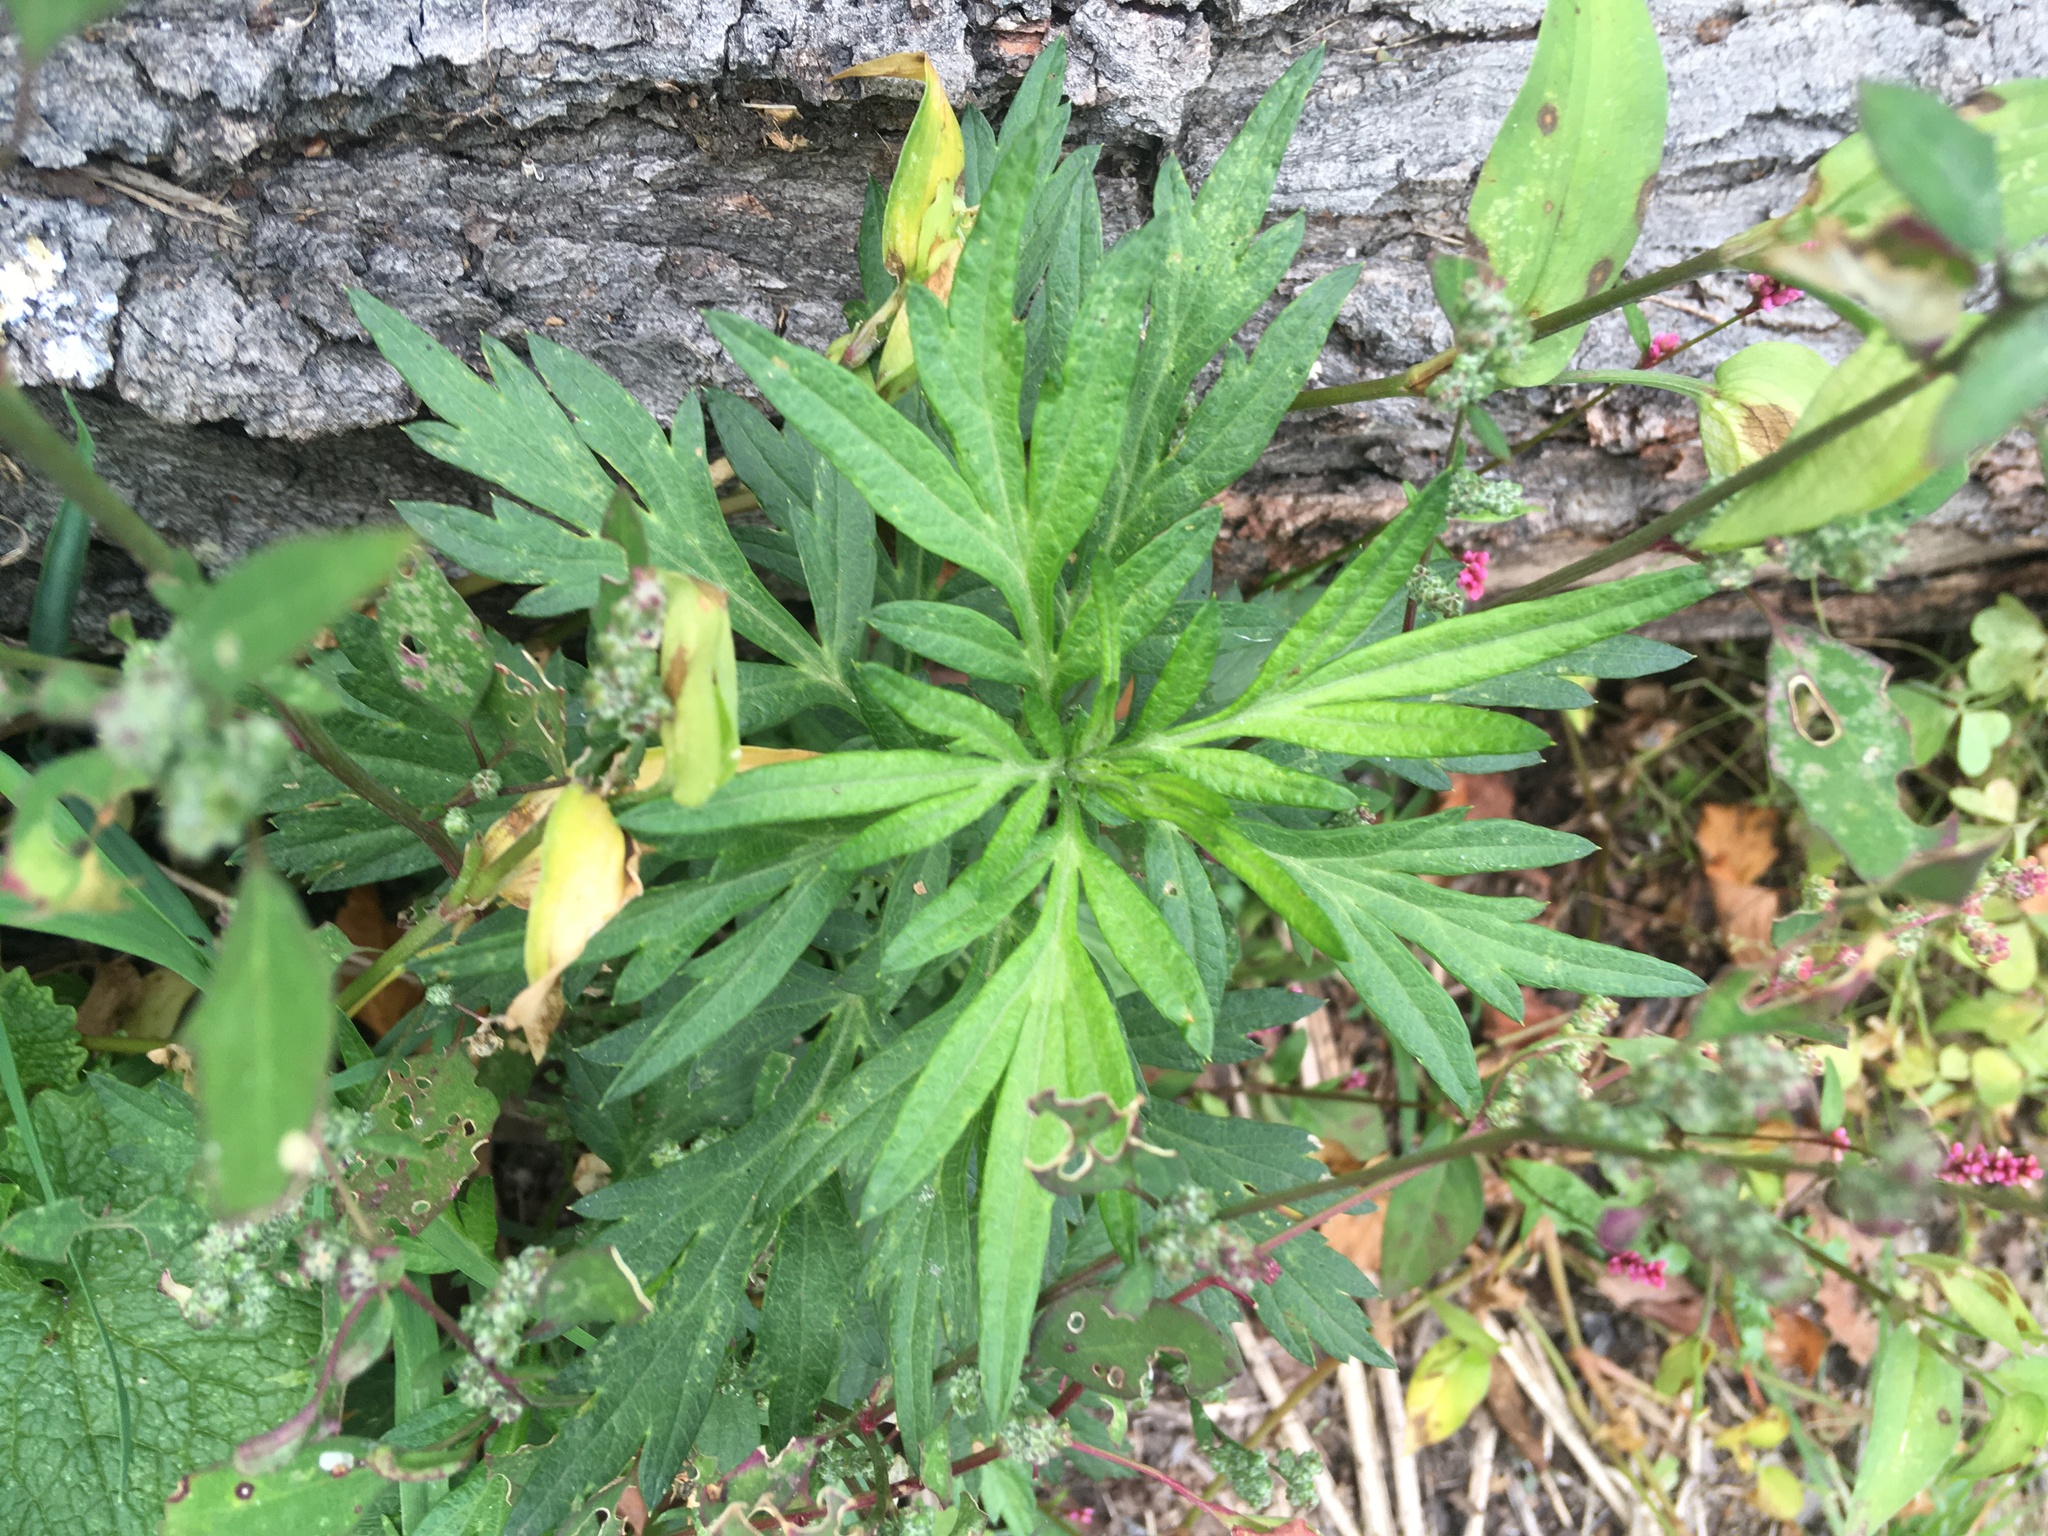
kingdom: Plantae
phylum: Tracheophyta
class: Magnoliopsida
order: Asterales
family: Asteraceae
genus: Artemisia
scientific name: Artemisia vulgaris
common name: Mugwort
